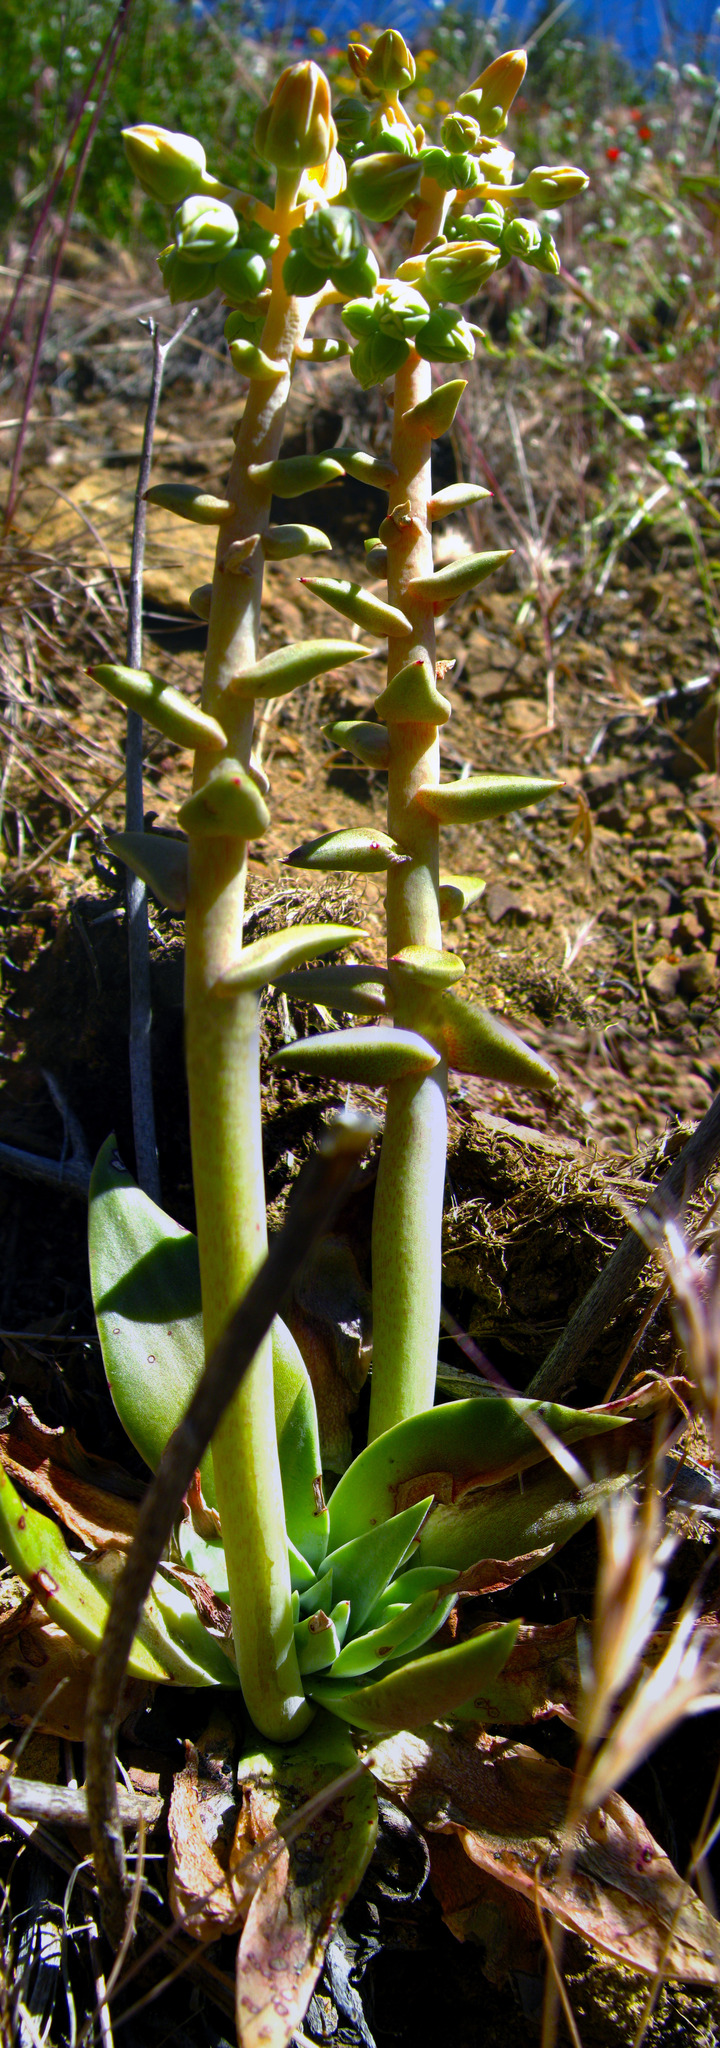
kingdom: Plantae
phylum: Tracheophyta
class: Magnoliopsida
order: Saxifragales
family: Crassulaceae
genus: Dudleya
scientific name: Dudleya lanceolata
